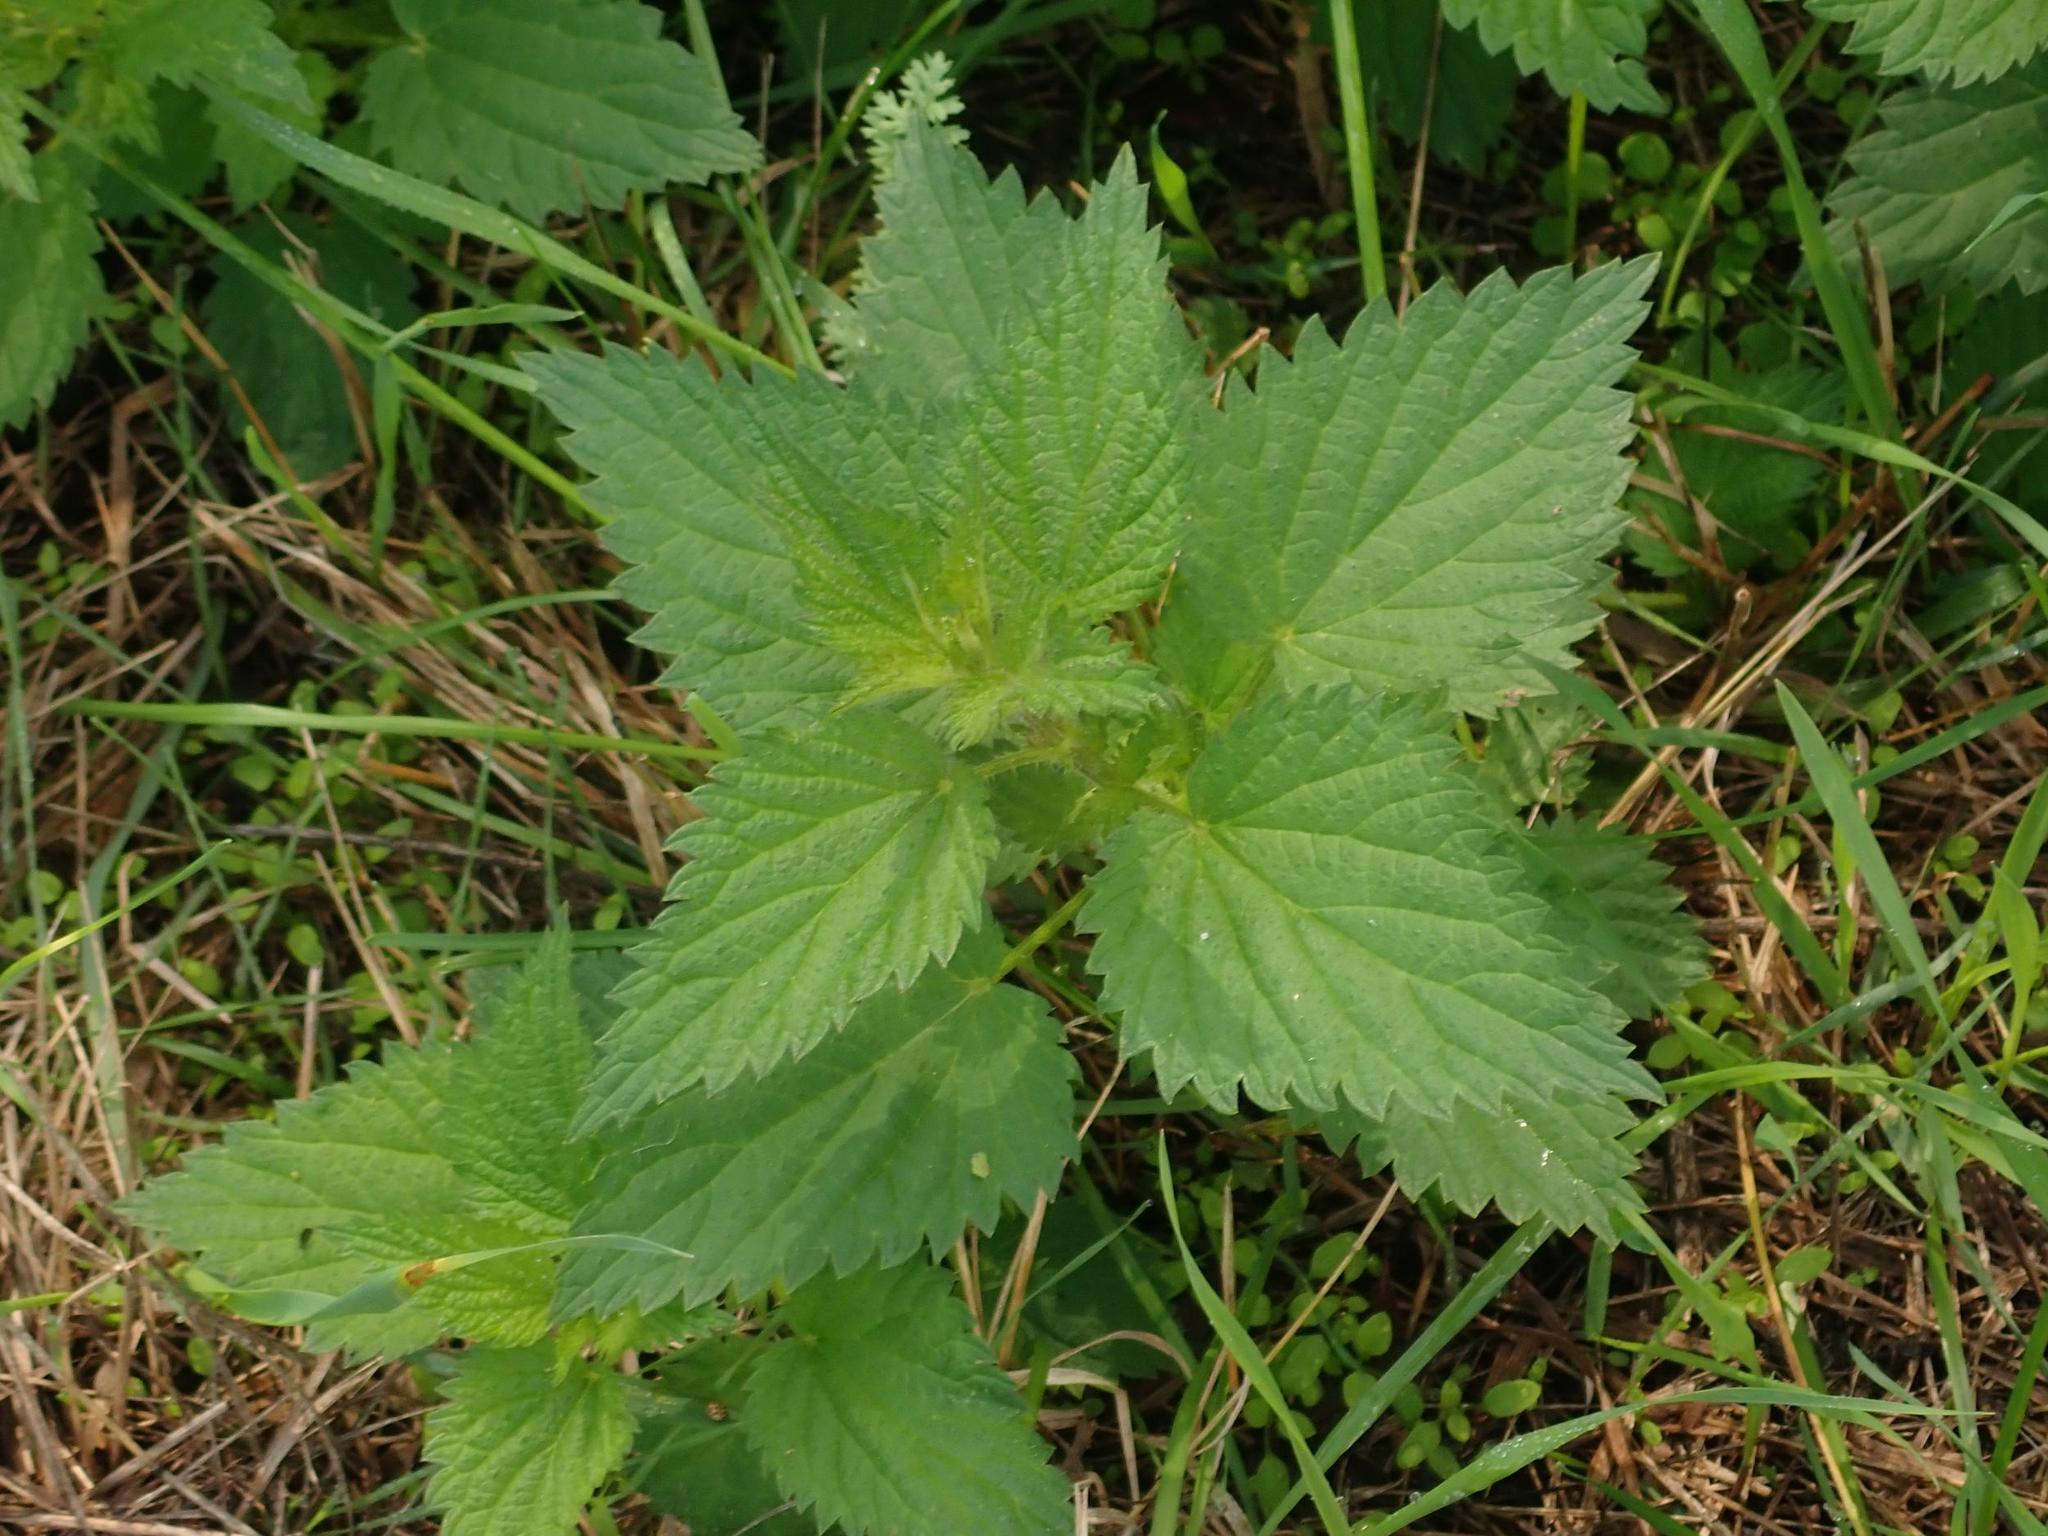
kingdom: Plantae
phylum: Tracheophyta
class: Magnoliopsida
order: Rosales
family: Urticaceae
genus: Urtica
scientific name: Urtica dioica
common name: Common nettle
